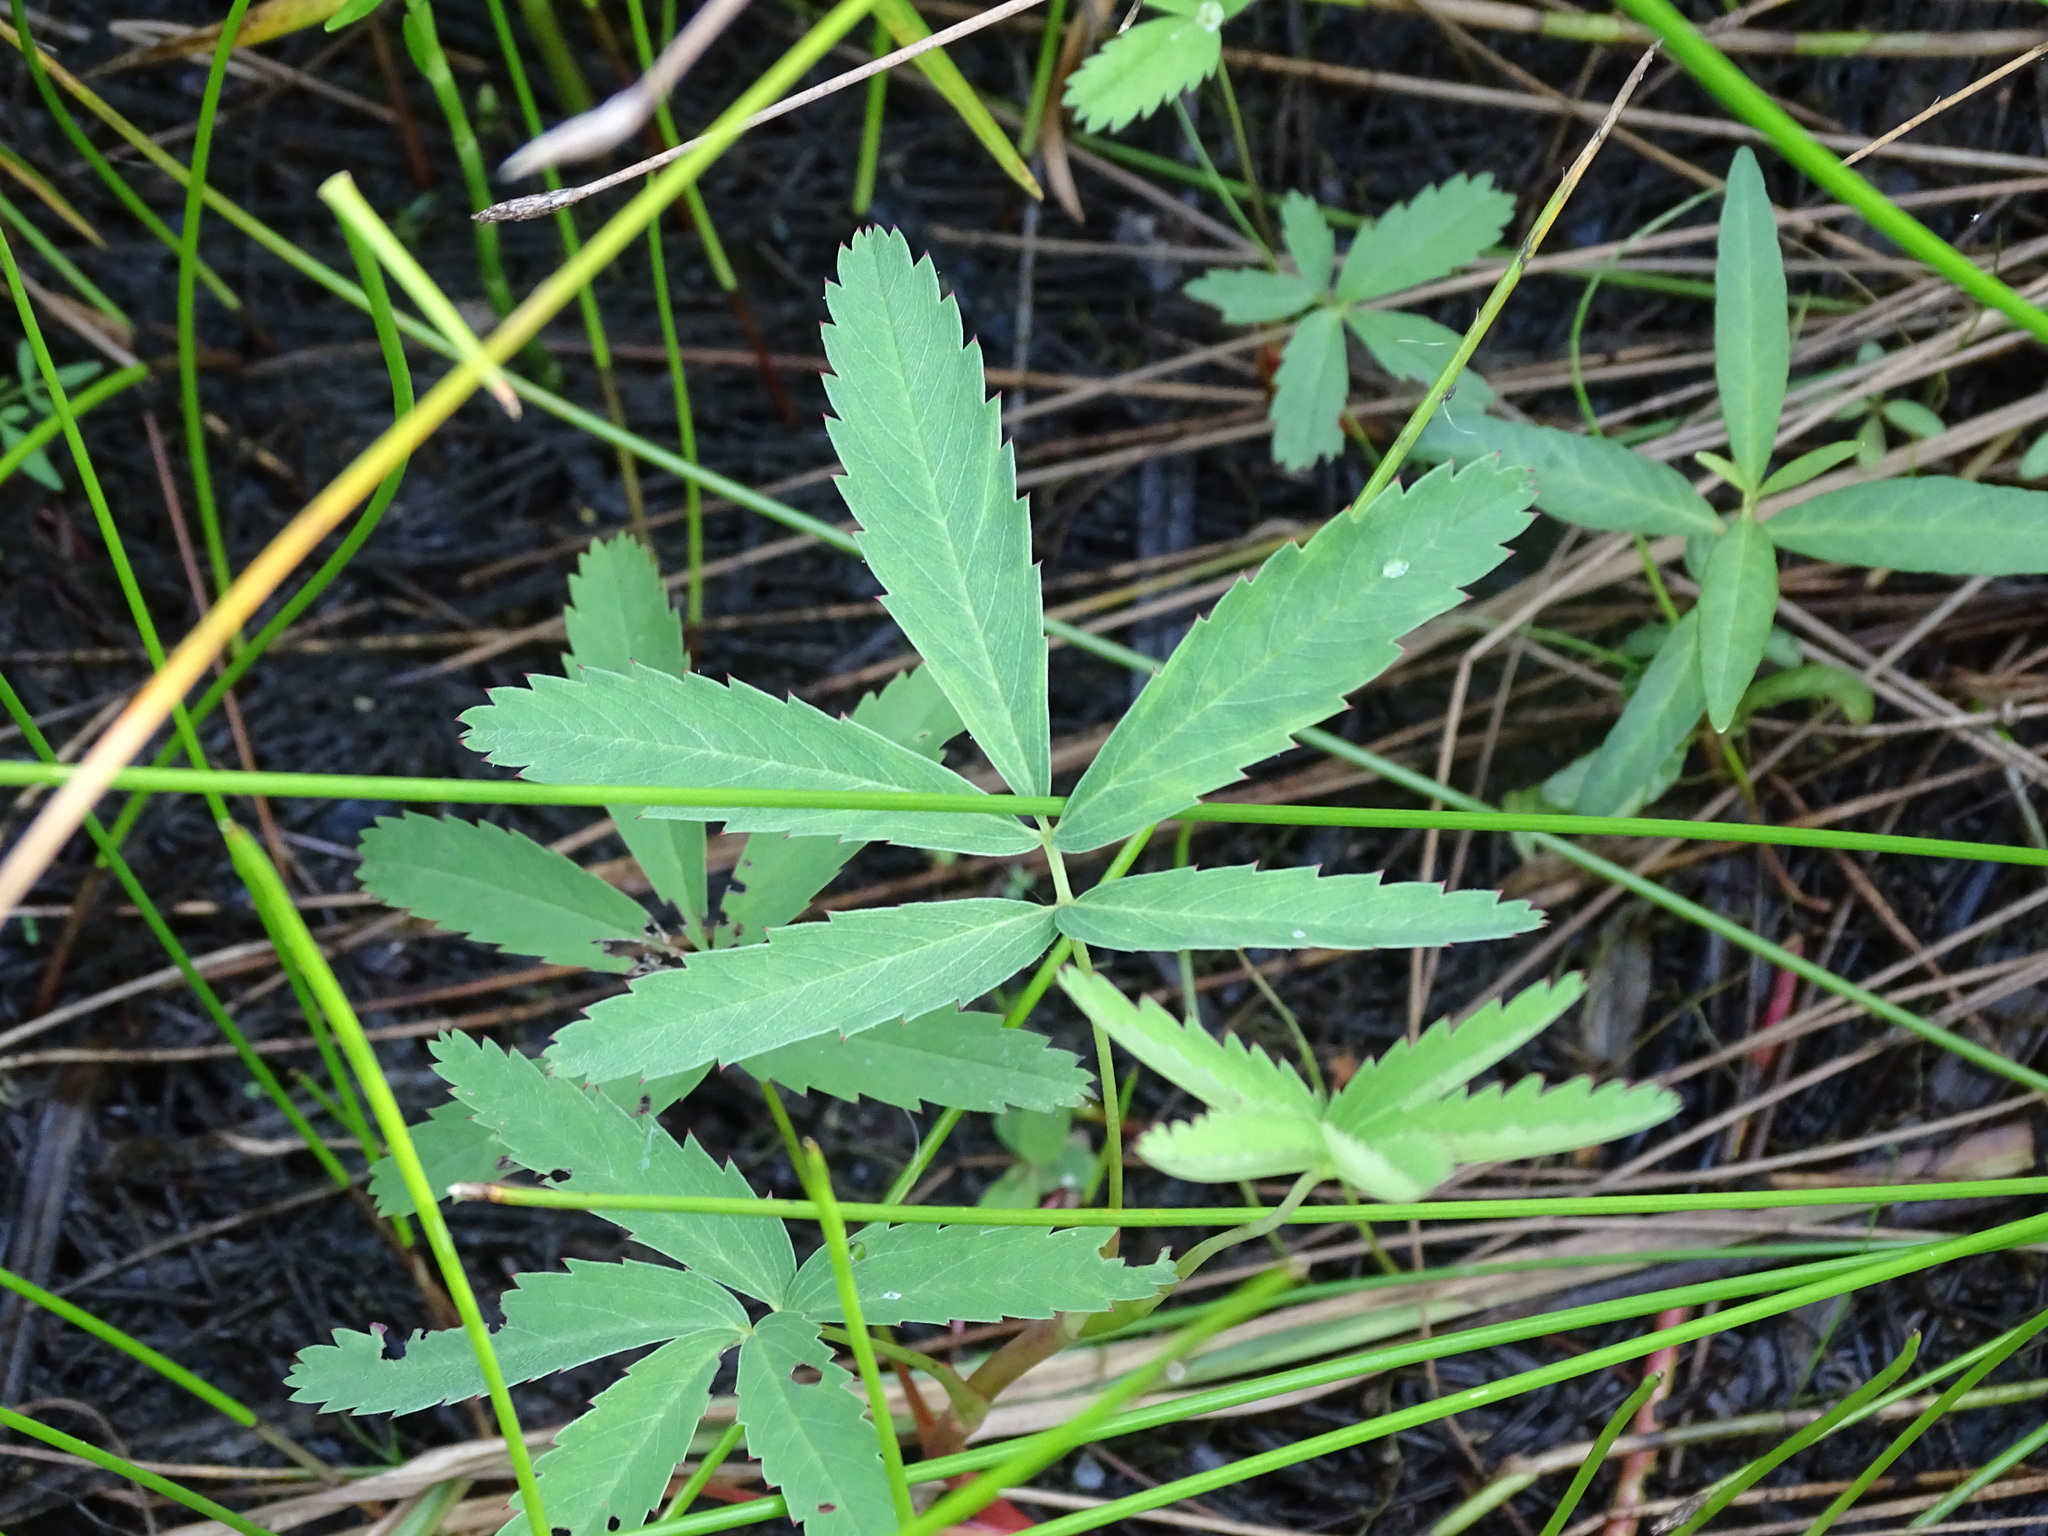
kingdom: Plantae
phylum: Tracheophyta
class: Magnoliopsida
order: Rosales
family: Rosaceae
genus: Comarum
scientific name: Comarum palustre
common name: Marsh cinquefoil
